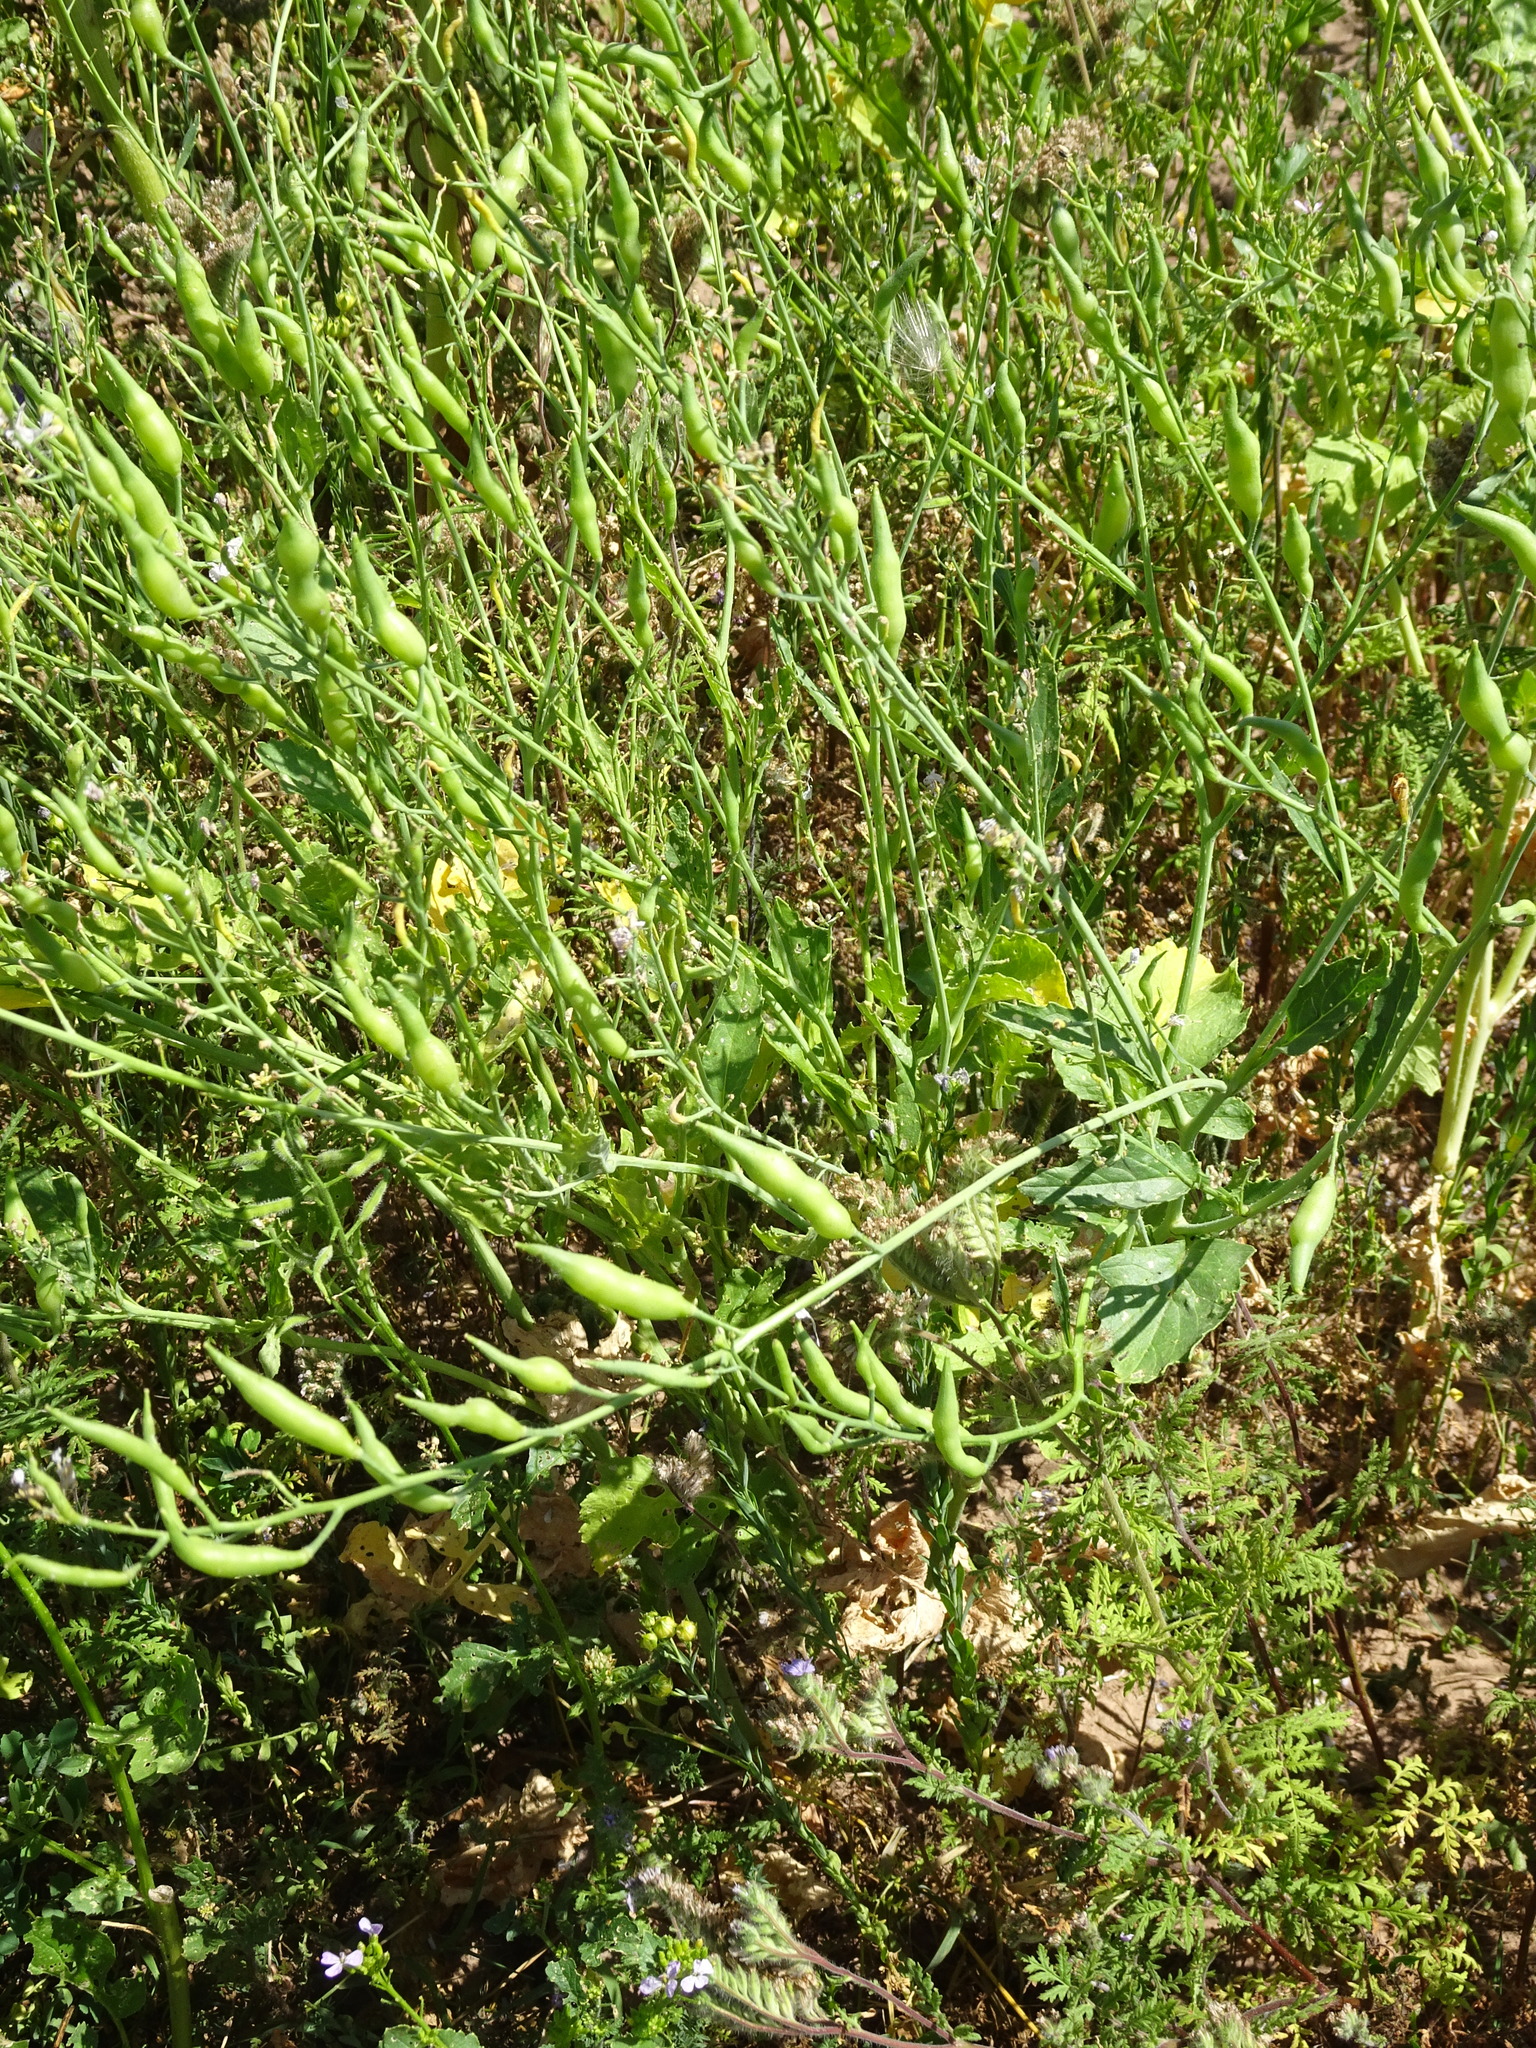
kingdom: Plantae
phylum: Tracheophyta
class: Magnoliopsida
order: Brassicales
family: Brassicaceae
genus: Raphanus
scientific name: Raphanus raphanistrum
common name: Wild radish
